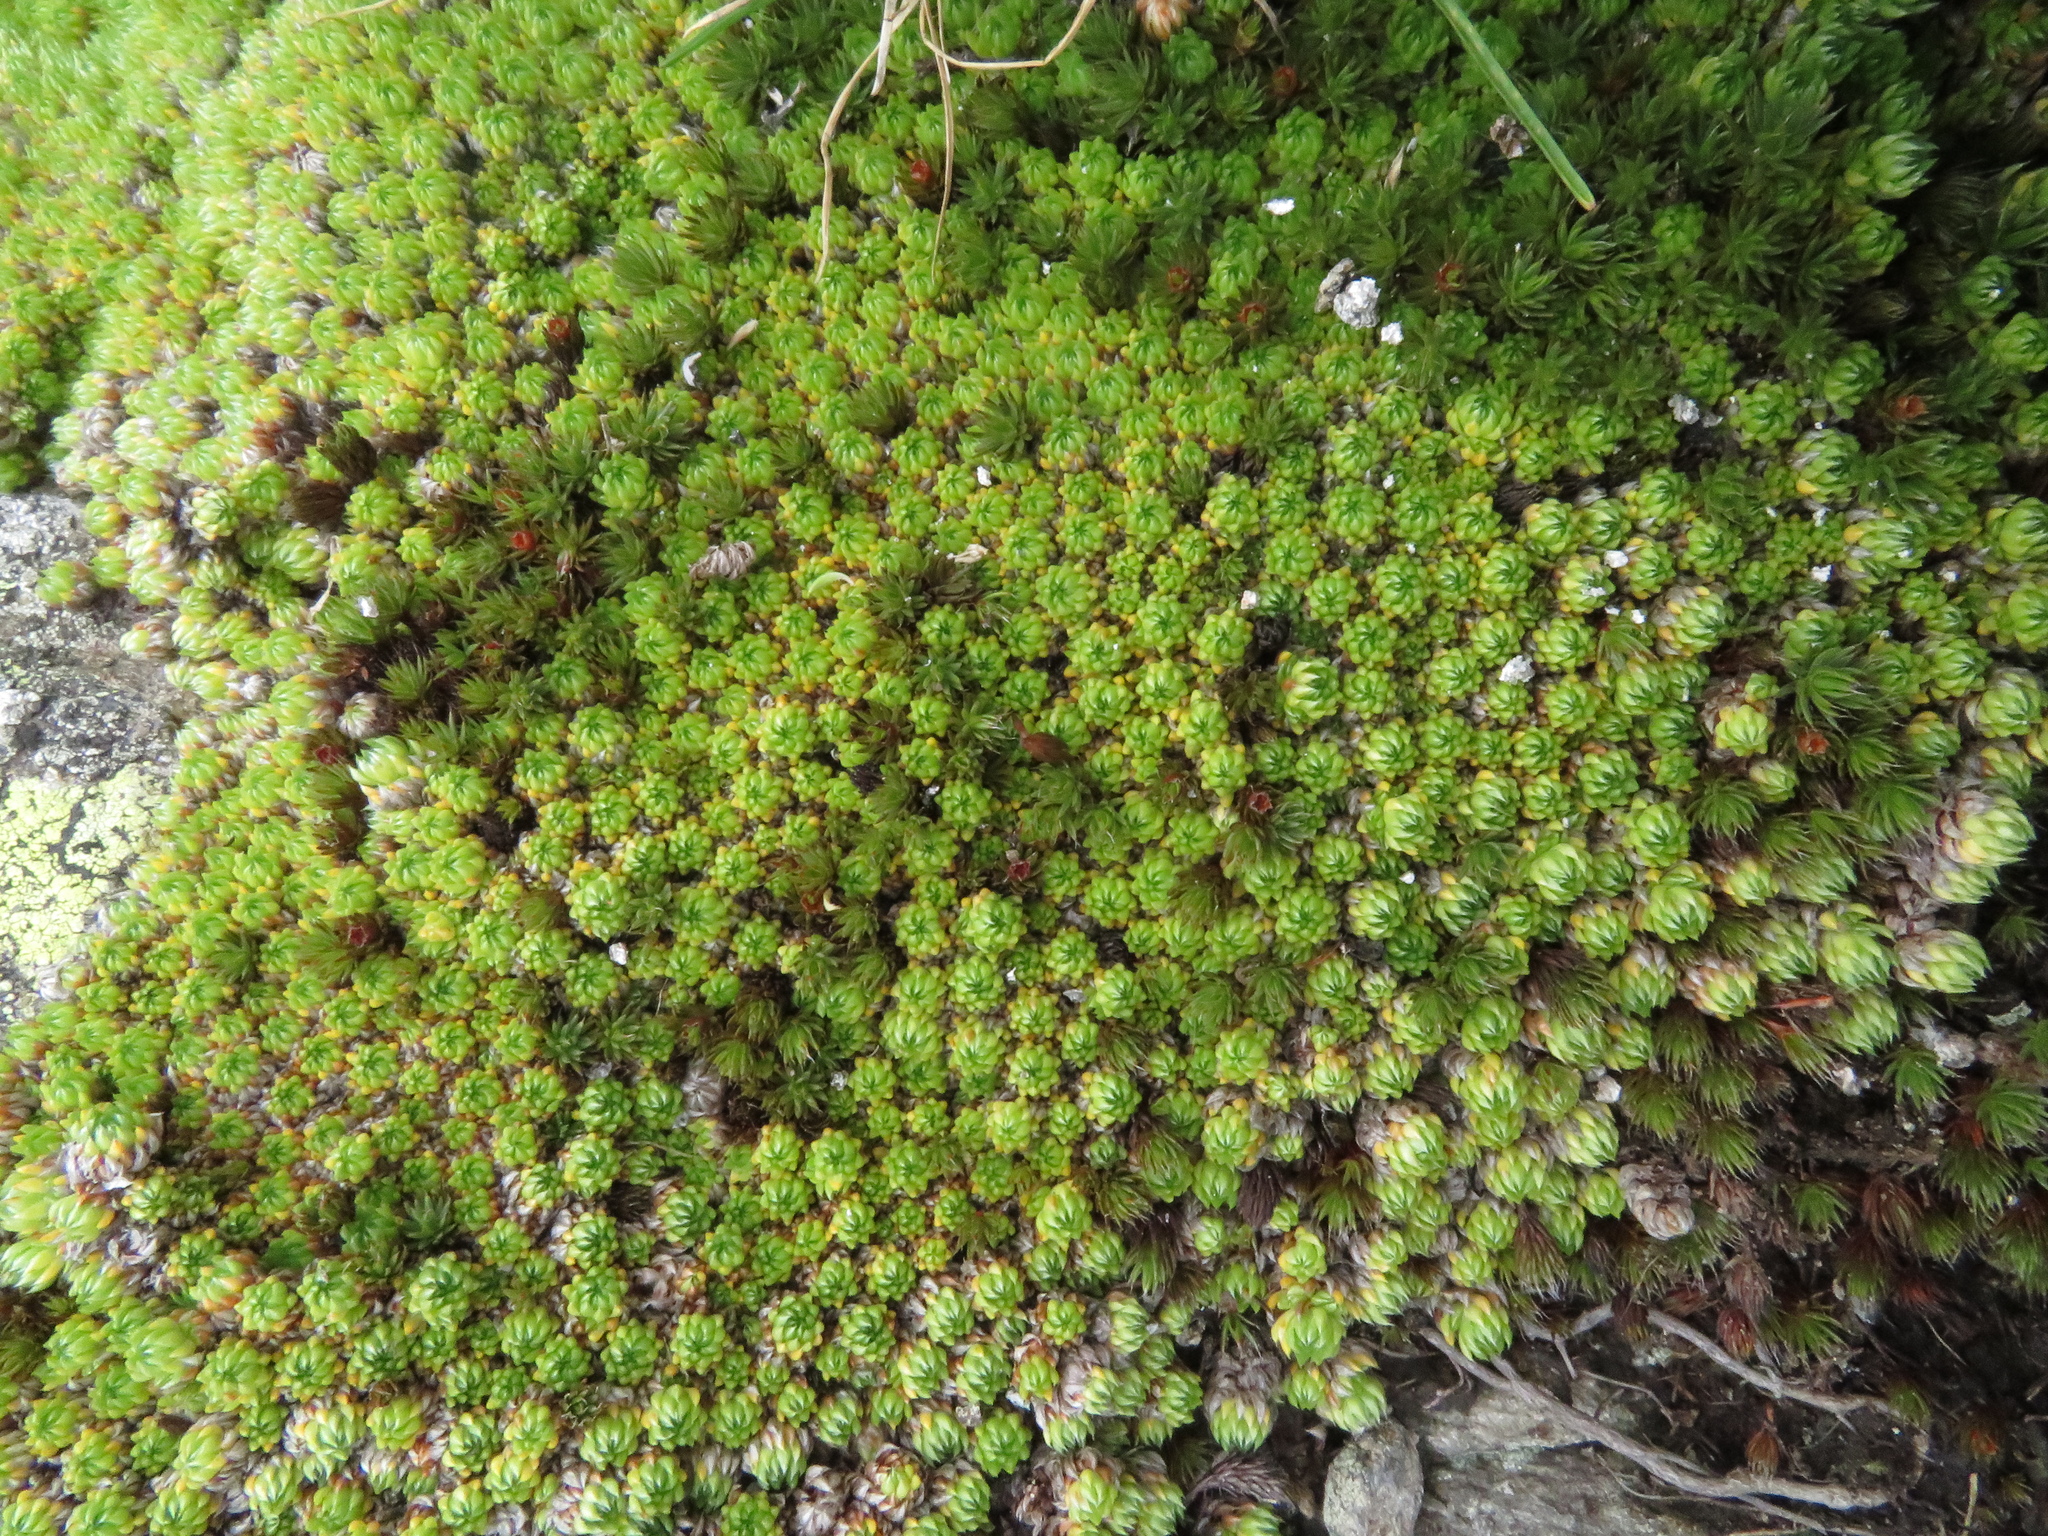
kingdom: Plantae
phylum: Tracheophyta
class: Magnoliopsida
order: Saxifragales
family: Saxifragaceae
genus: Saxifraga
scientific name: Saxifraga bryoides
